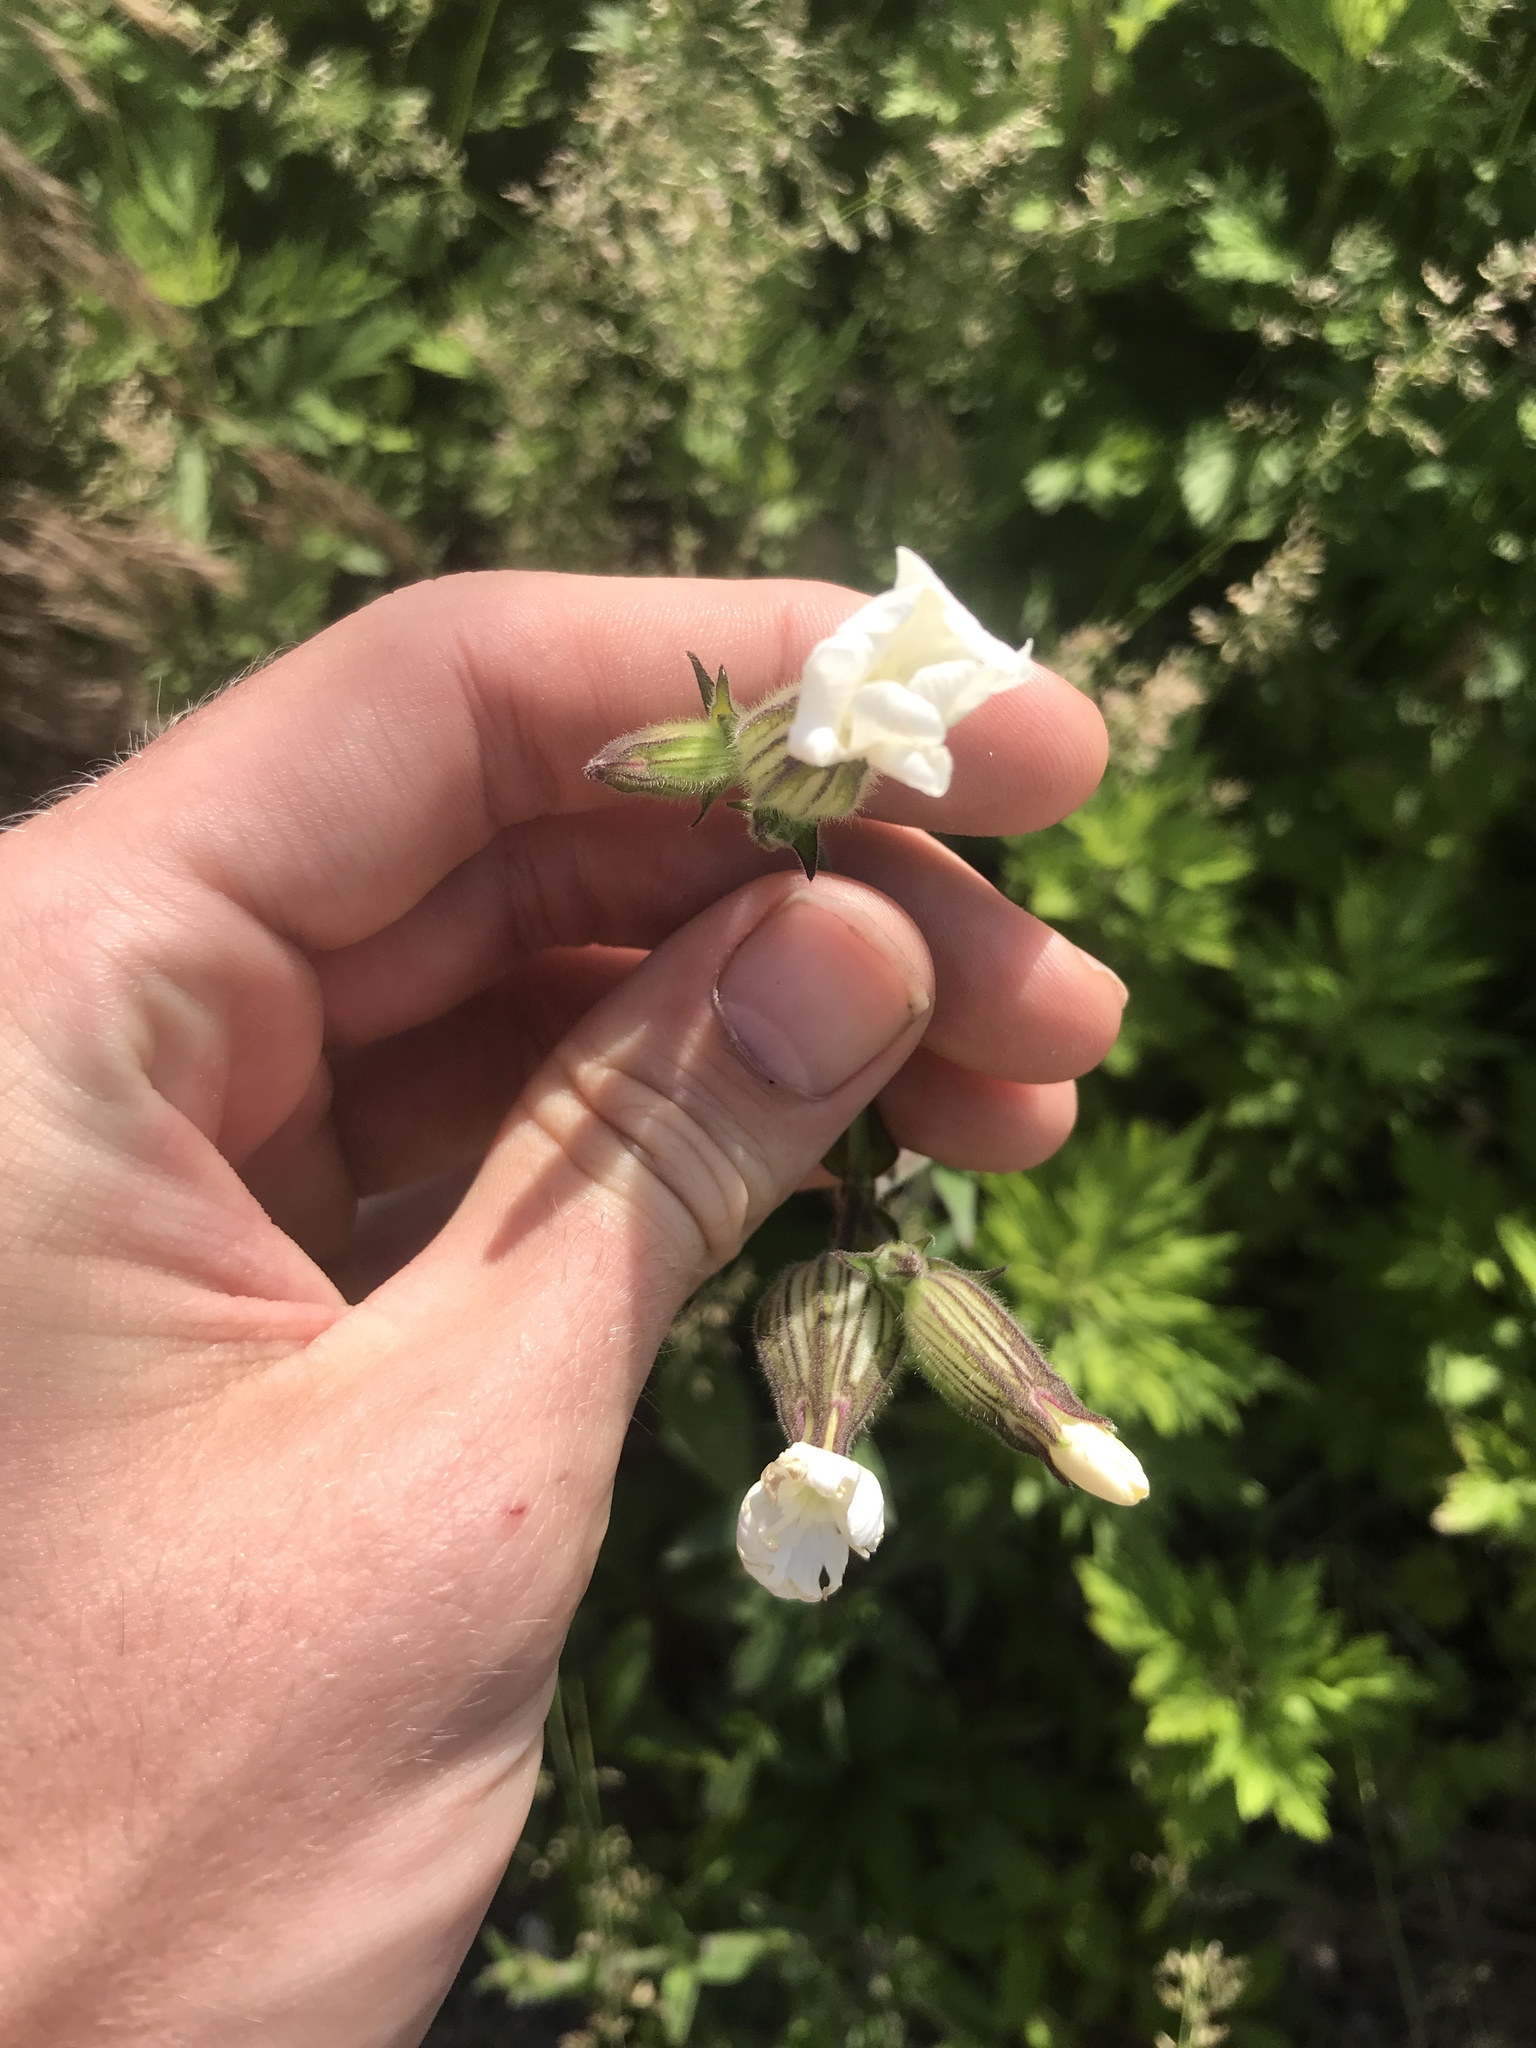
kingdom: Plantae
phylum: Tracheophyta
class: Magnoliopsida
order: Caryophyllales
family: Caryophyllaceae
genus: Silene
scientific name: Silene latifolia
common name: White campion
